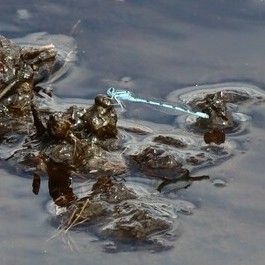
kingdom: Animalia
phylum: Arthropoda
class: Insecta
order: Odonata
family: Coenagrionidae
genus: Enallagma
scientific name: Enallagma cyathigerum
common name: Common blue damselfly
